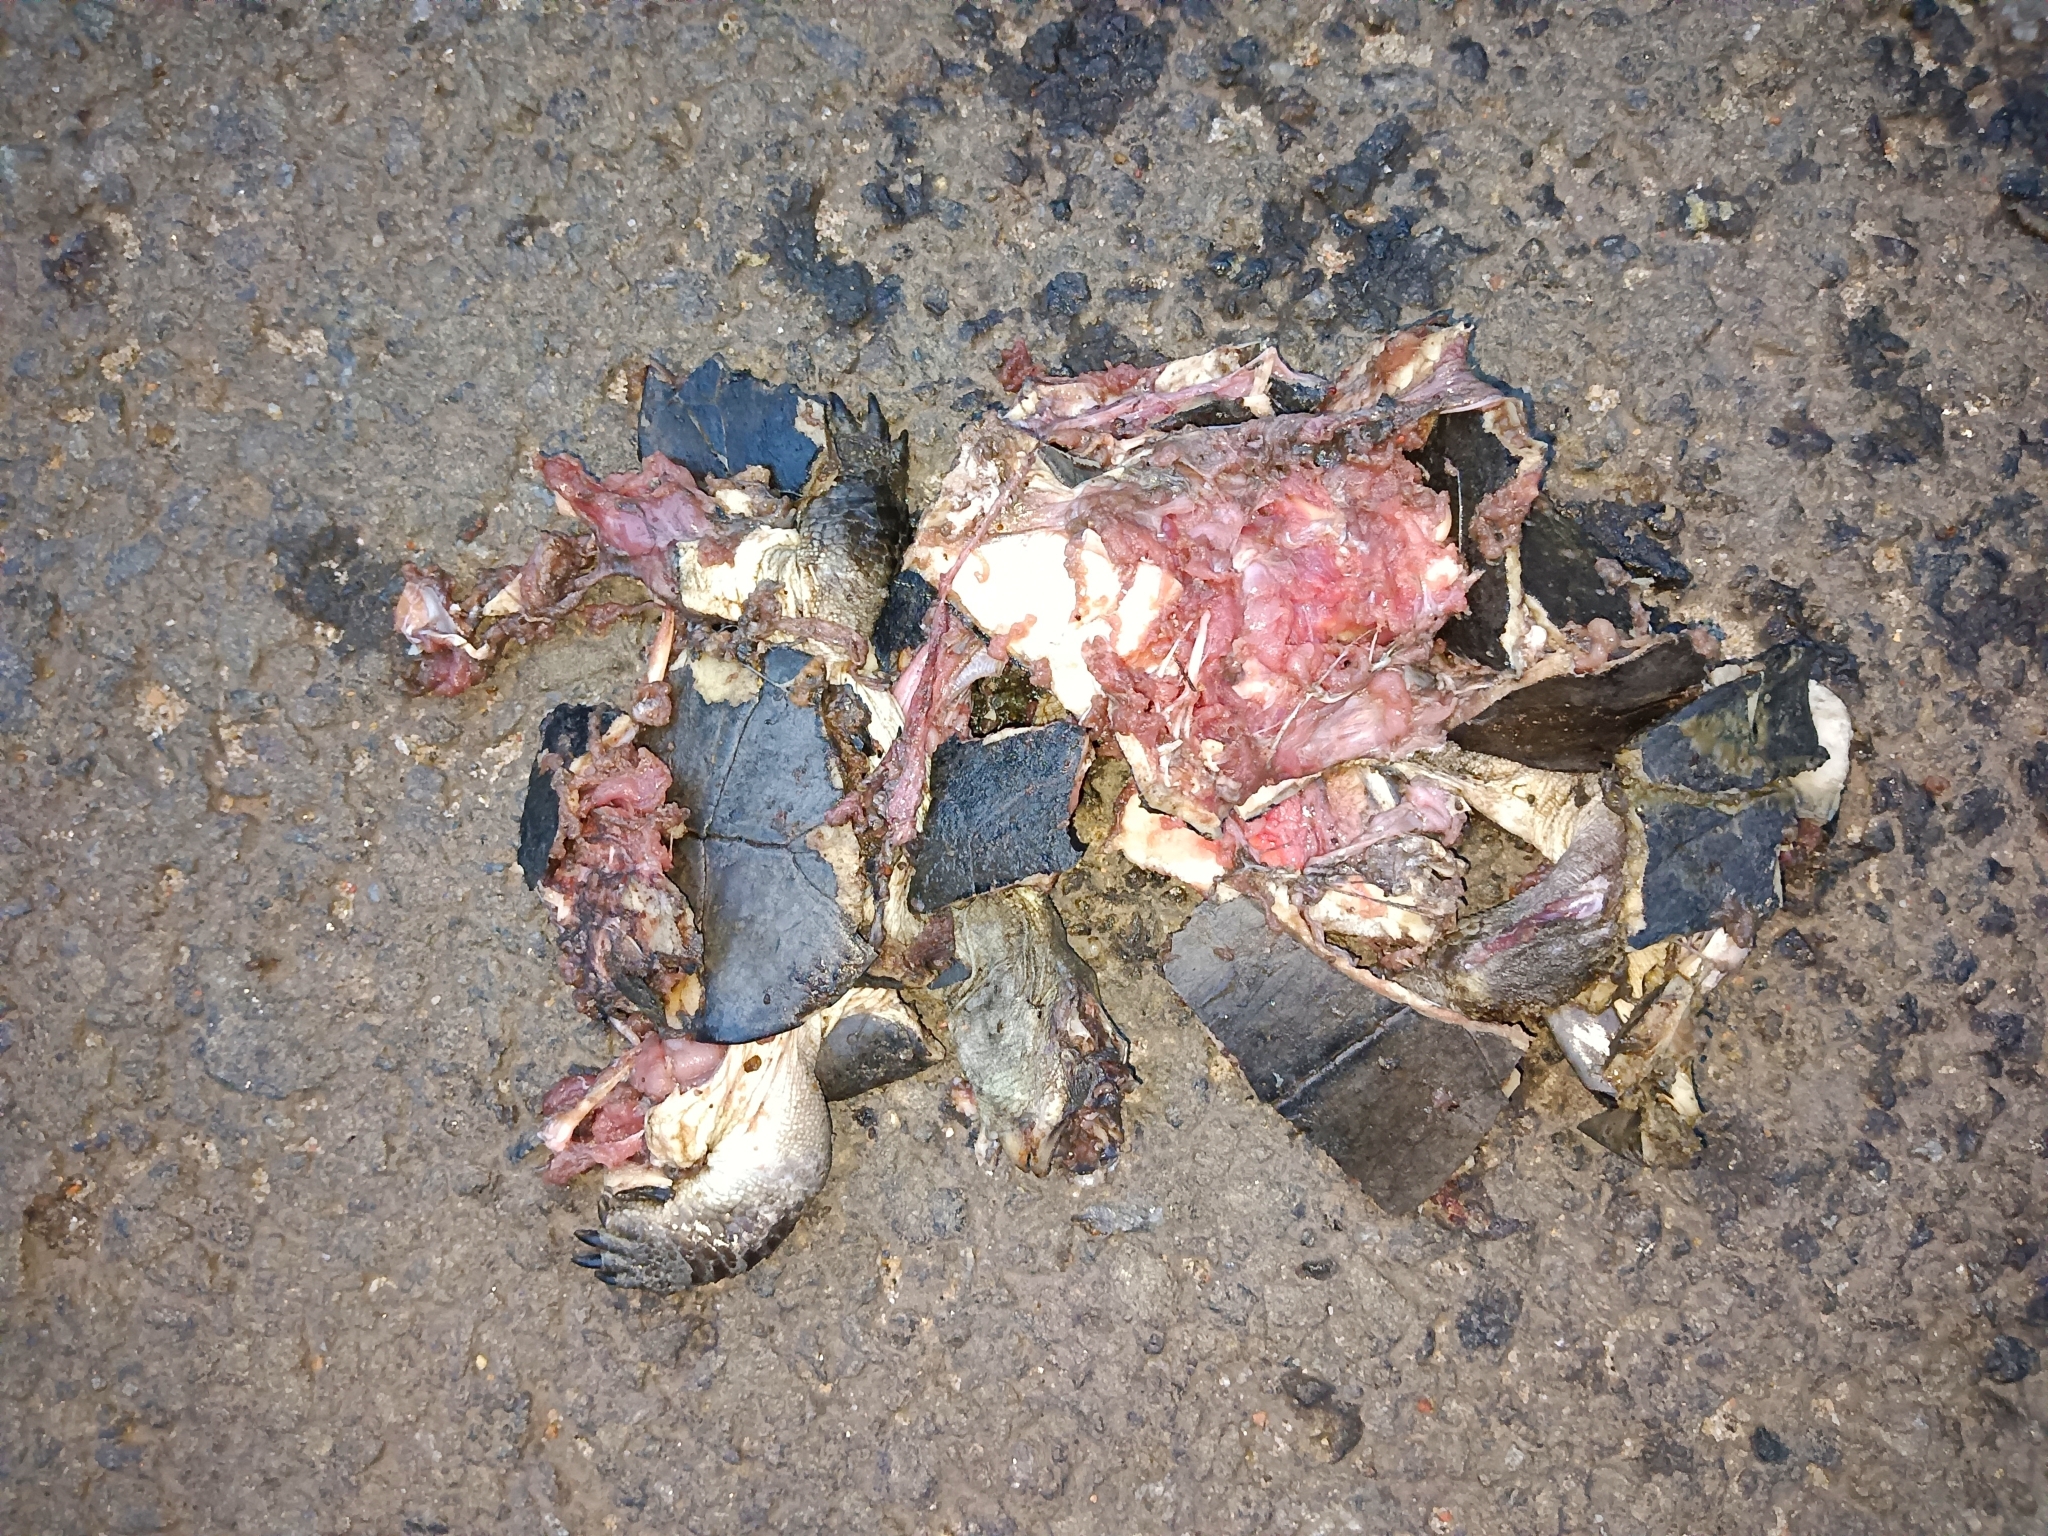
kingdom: Animalia
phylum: Chordata
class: Testudines
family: Geoemydidae
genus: Melanochelys
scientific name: Melanochelys trijuga
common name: Indian black turtle
